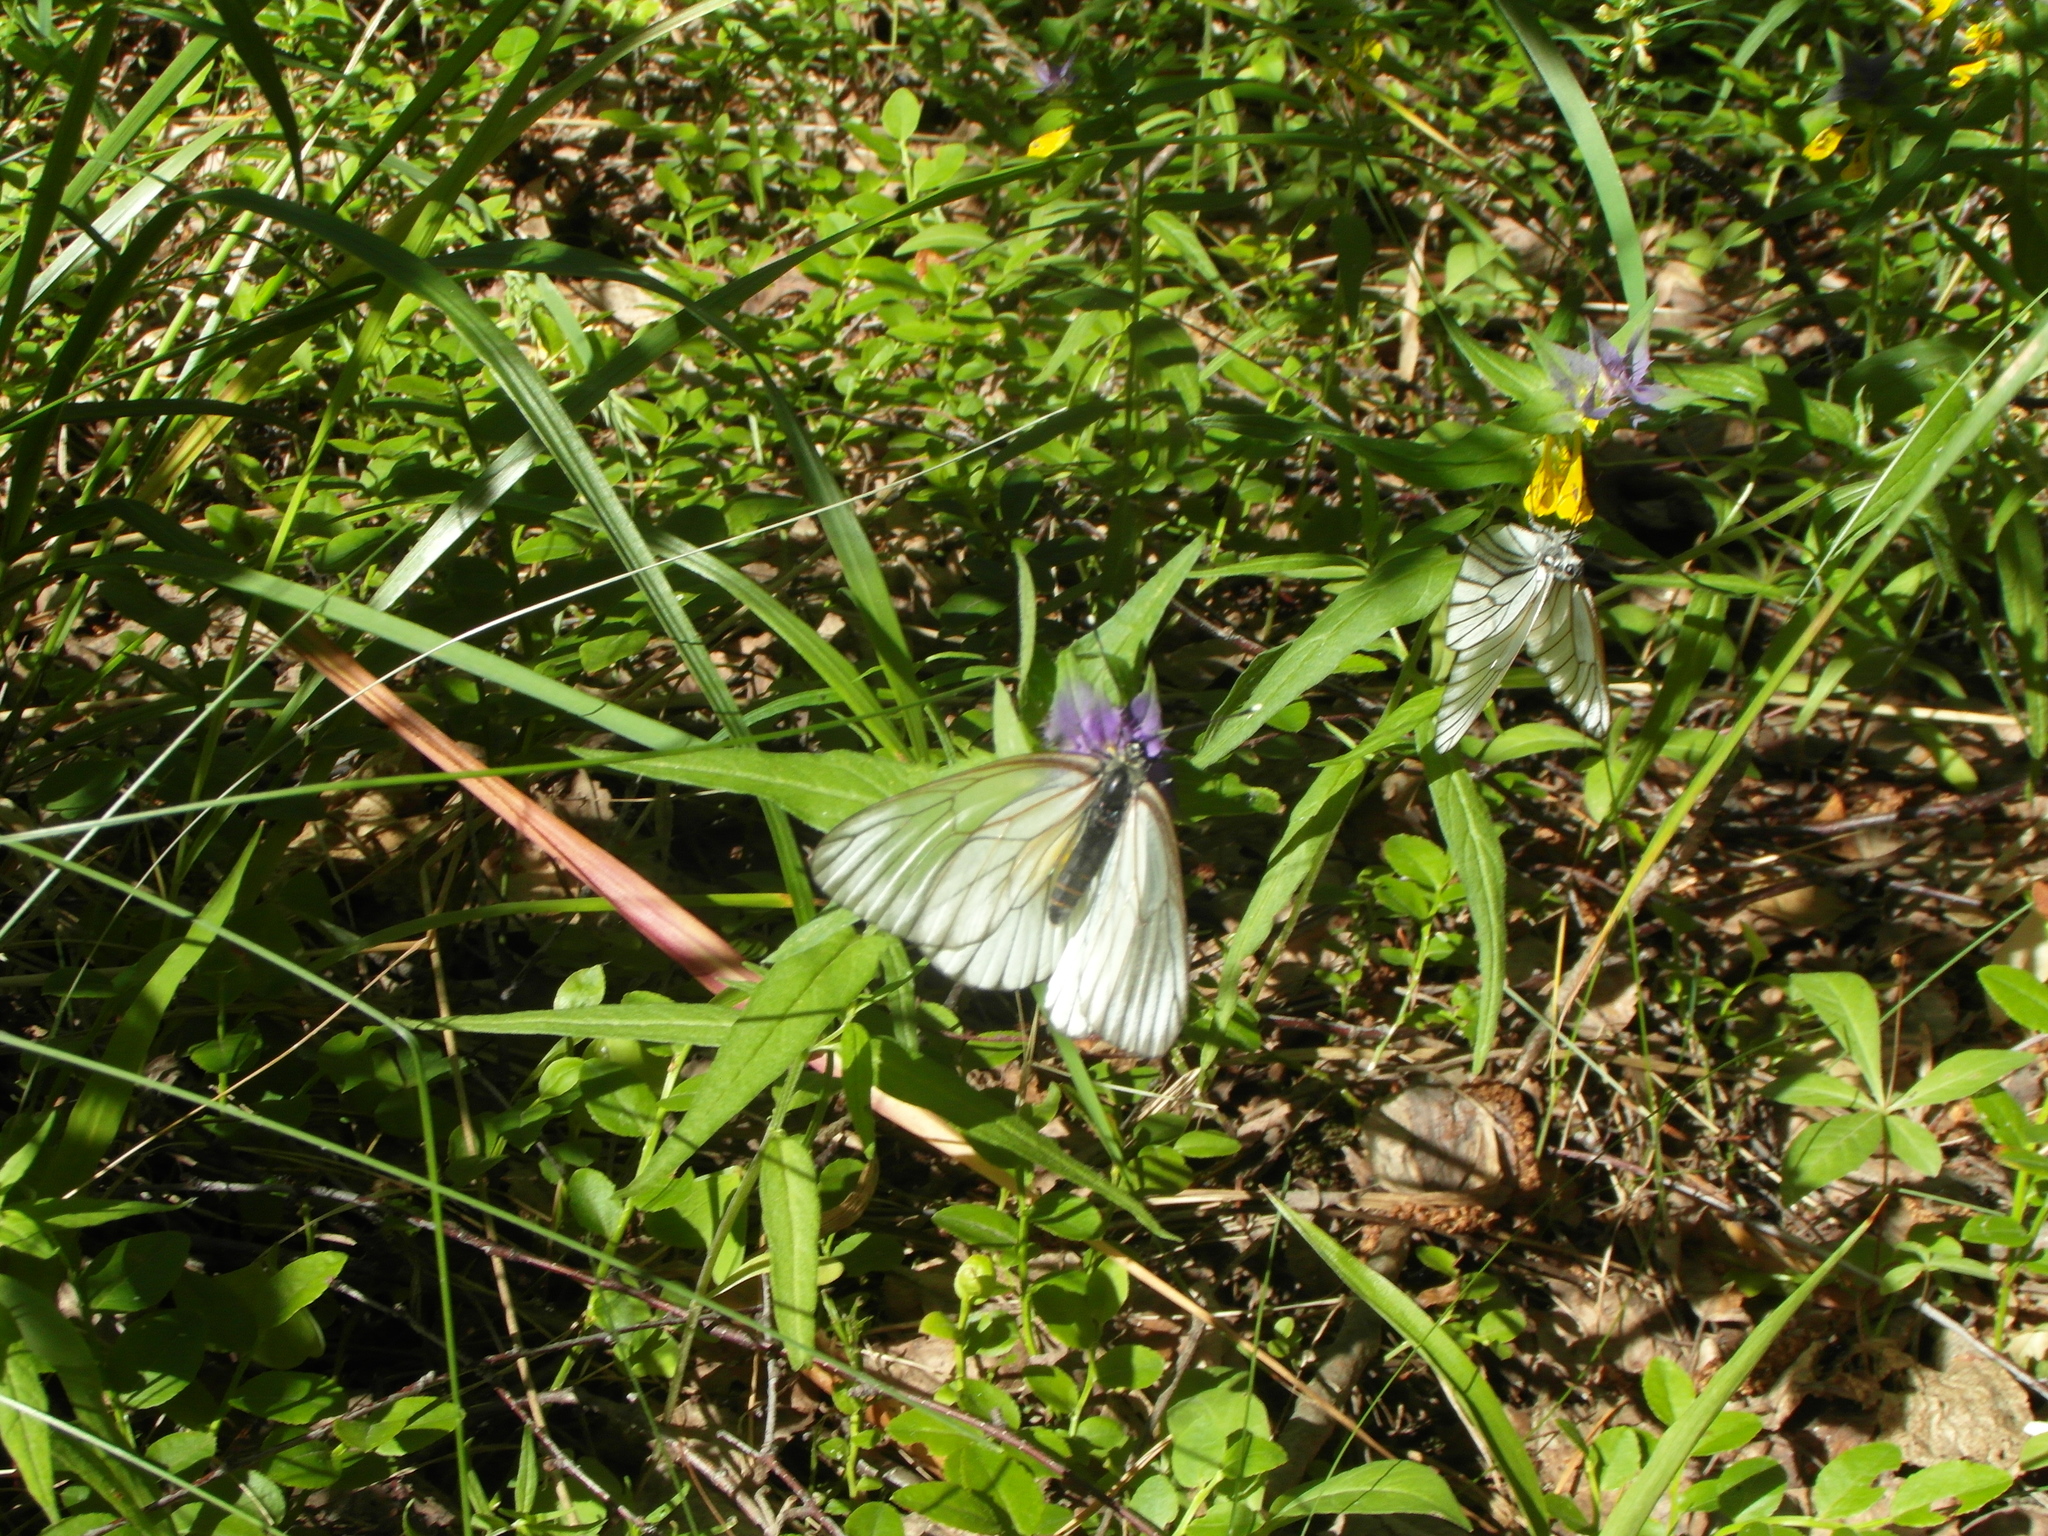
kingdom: Animalia
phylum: Arthropoda
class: Insecta
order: Lepidoptera
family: Pieridae
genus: Aporia
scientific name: Aporia crataegi
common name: Black-veined white
